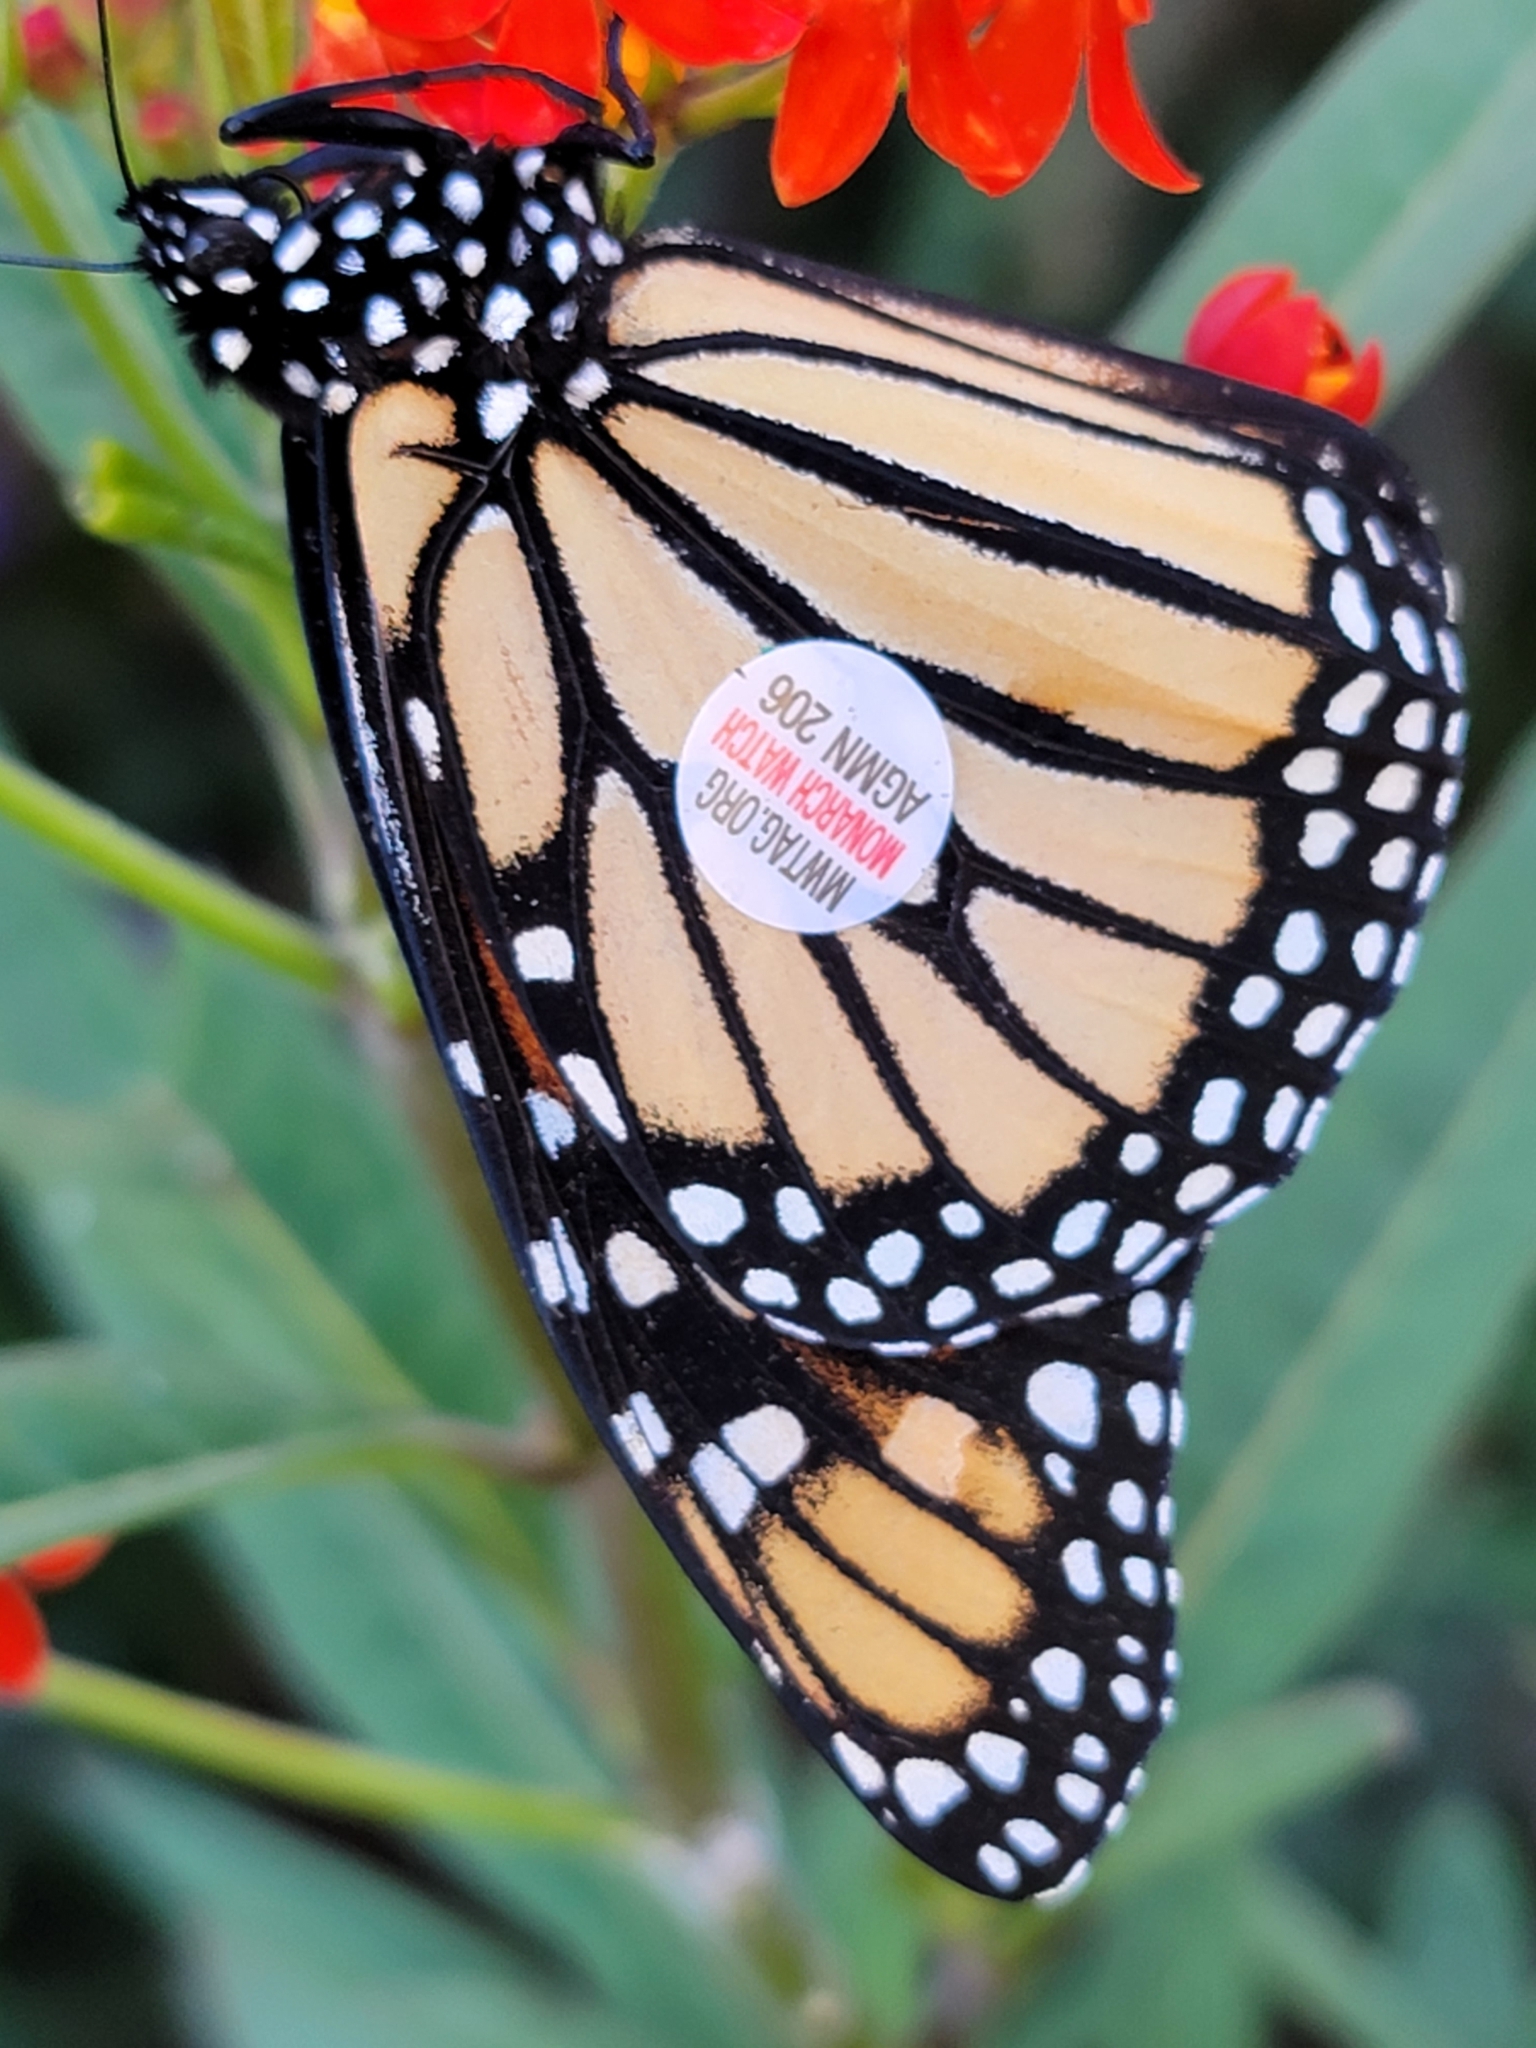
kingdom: Animalia
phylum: Arthropoda
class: Insecta
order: Lepidoptera
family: Nymphalidae
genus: Danaus
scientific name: Danaus plexippus
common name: Monarch
